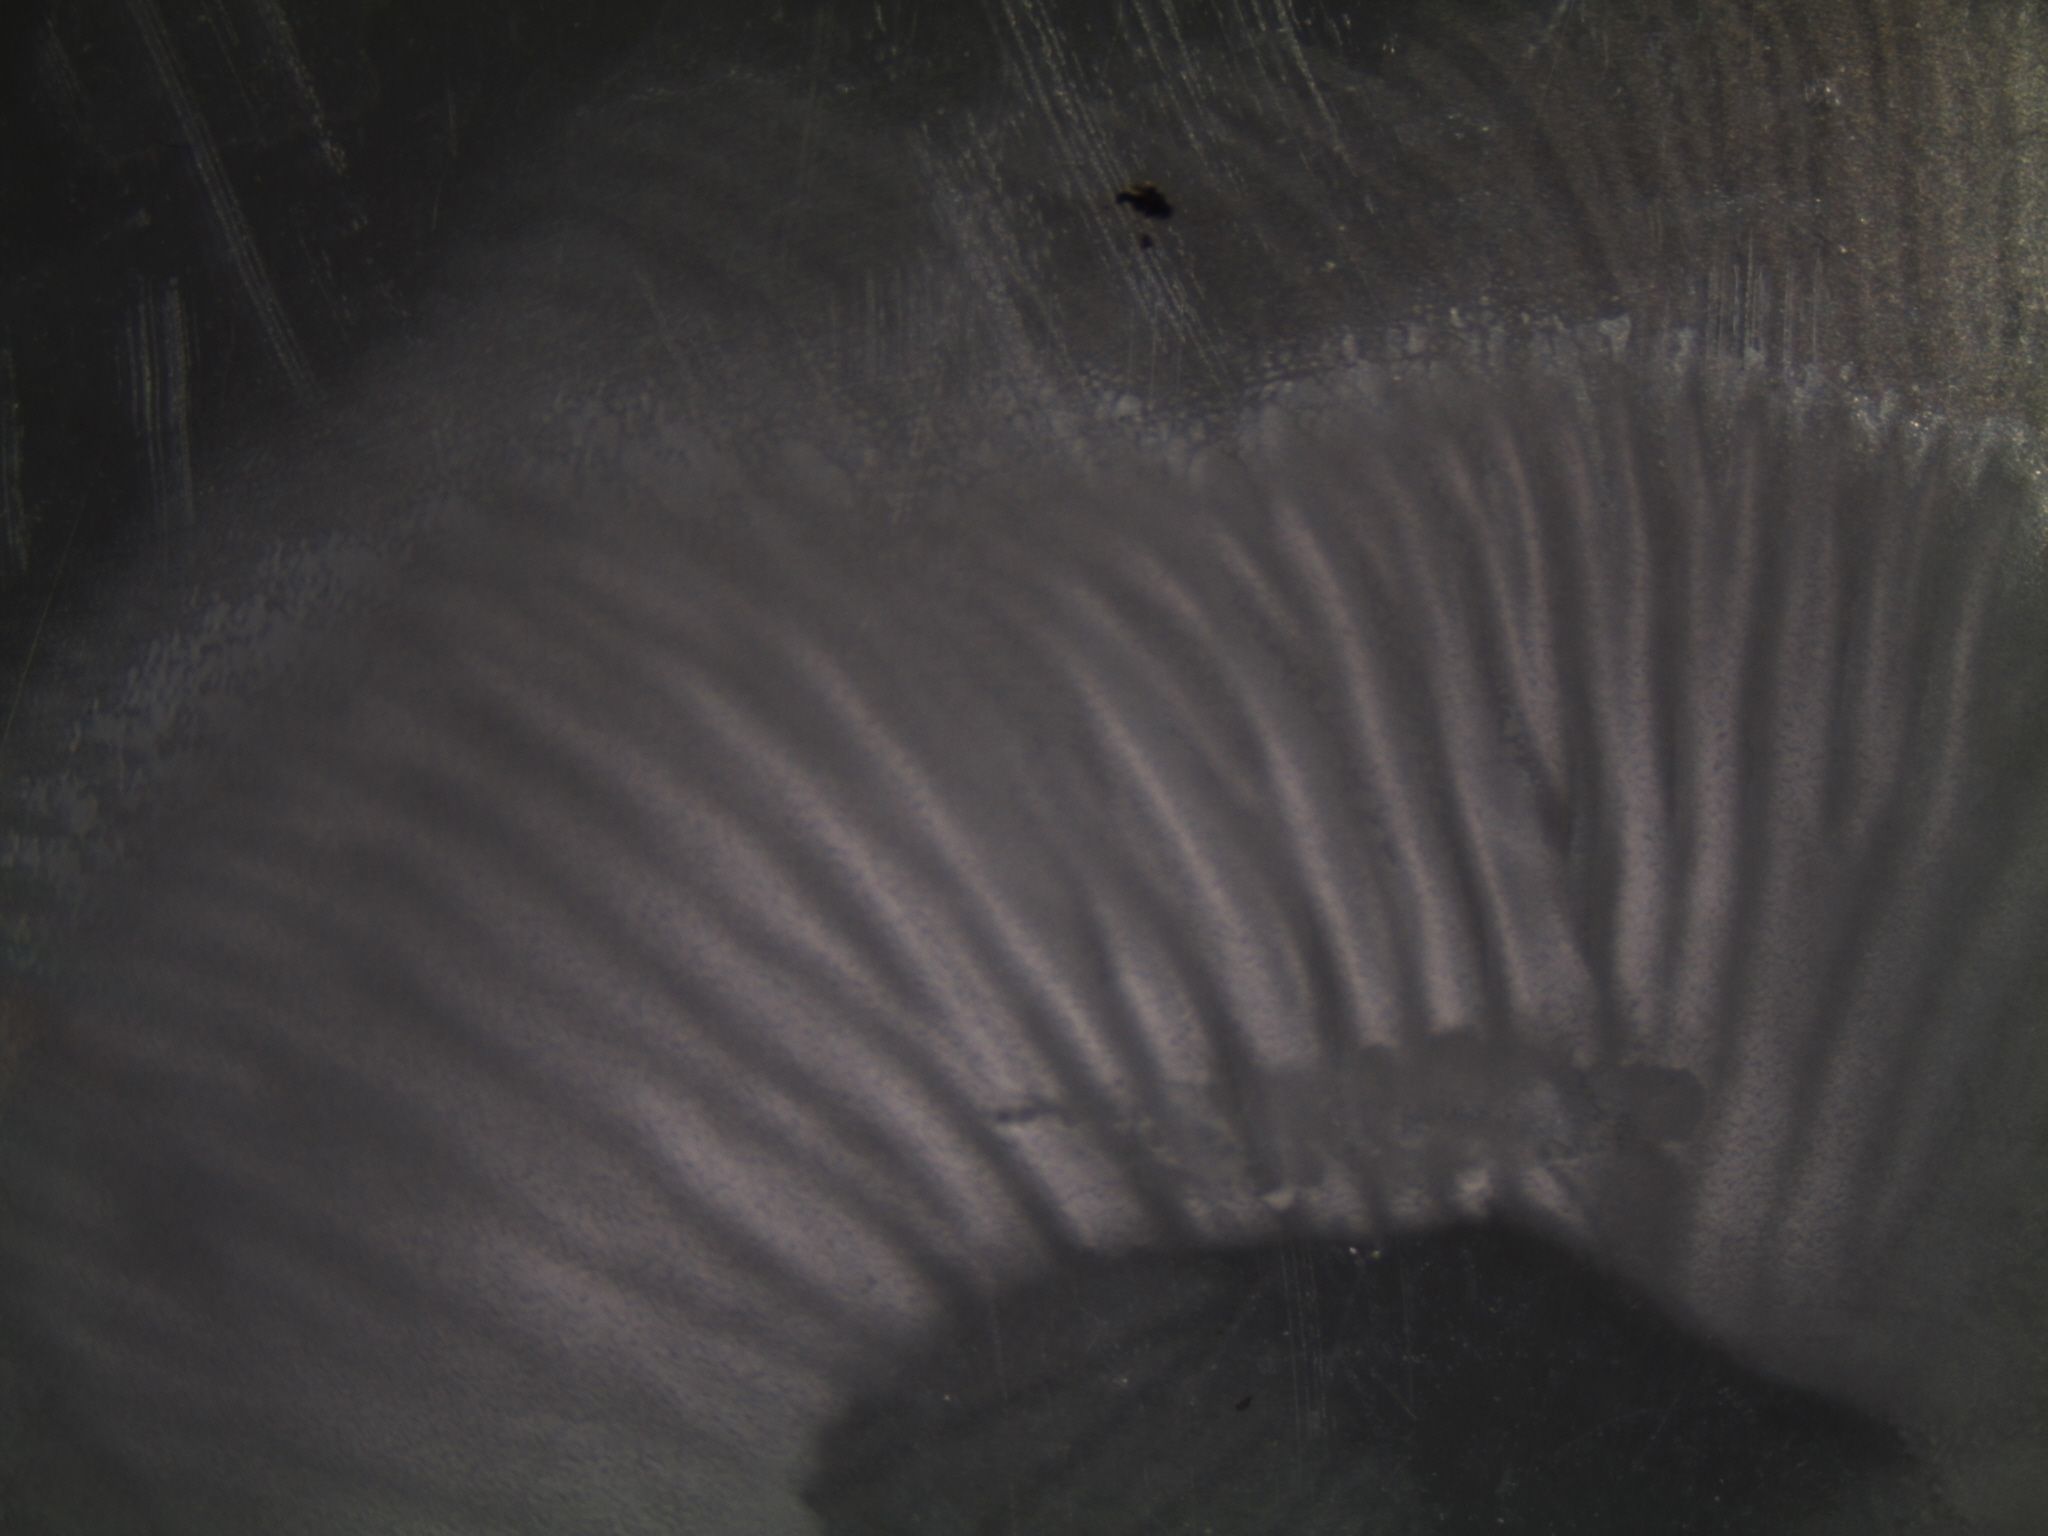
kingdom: Fungi
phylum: Basidiomycota
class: Agaricomycetes
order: Agaricales
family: Physalacriaceae
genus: Flammulina
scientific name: Flammulina velutipes
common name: Velvet shank
